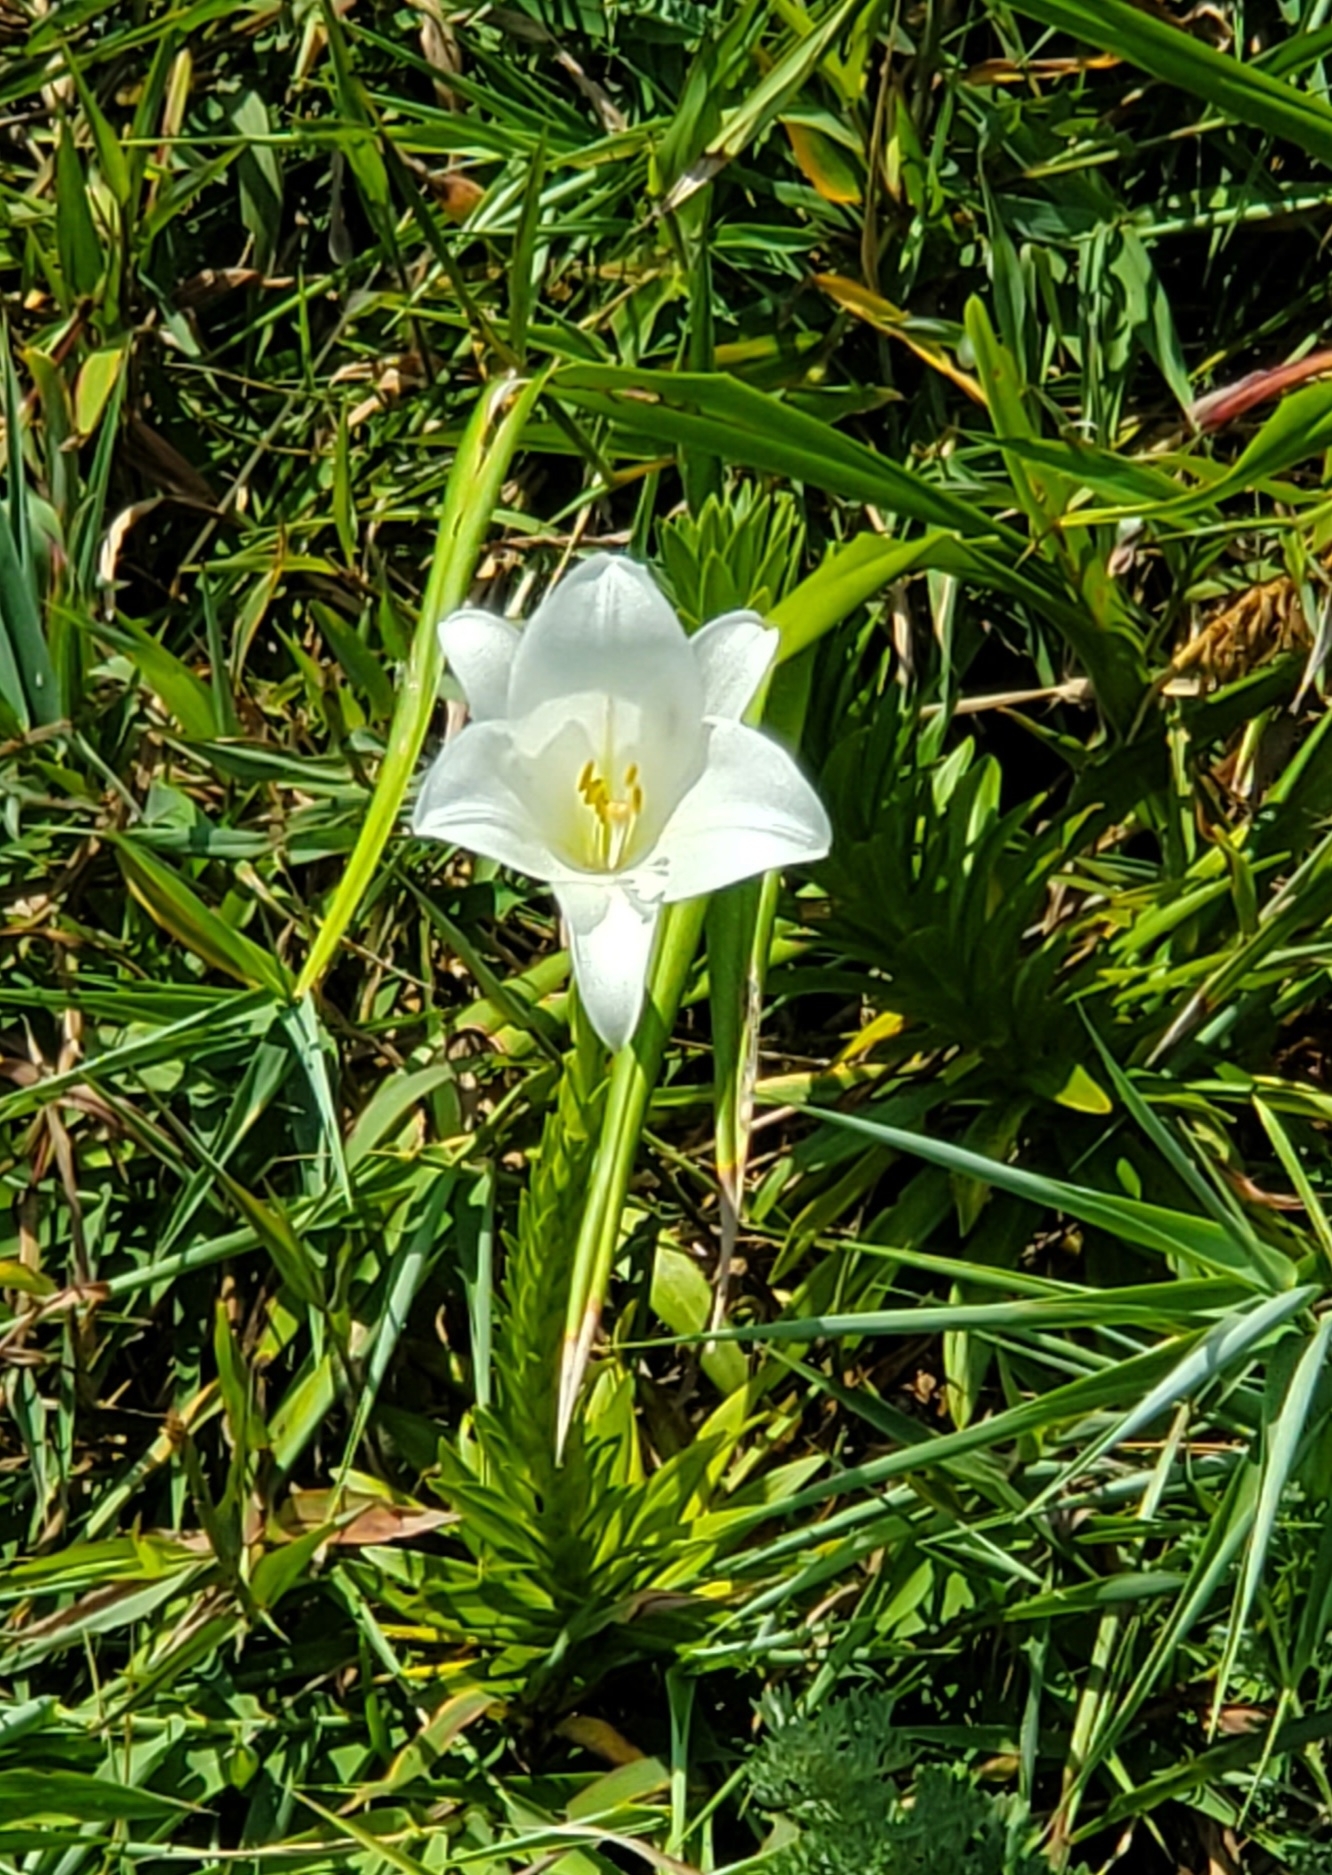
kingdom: Plantae
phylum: Tracheophyta
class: Liliopsida
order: Liliales
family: Liliaceae
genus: Lilium
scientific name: Lilium longiflorum
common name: Easter lily
